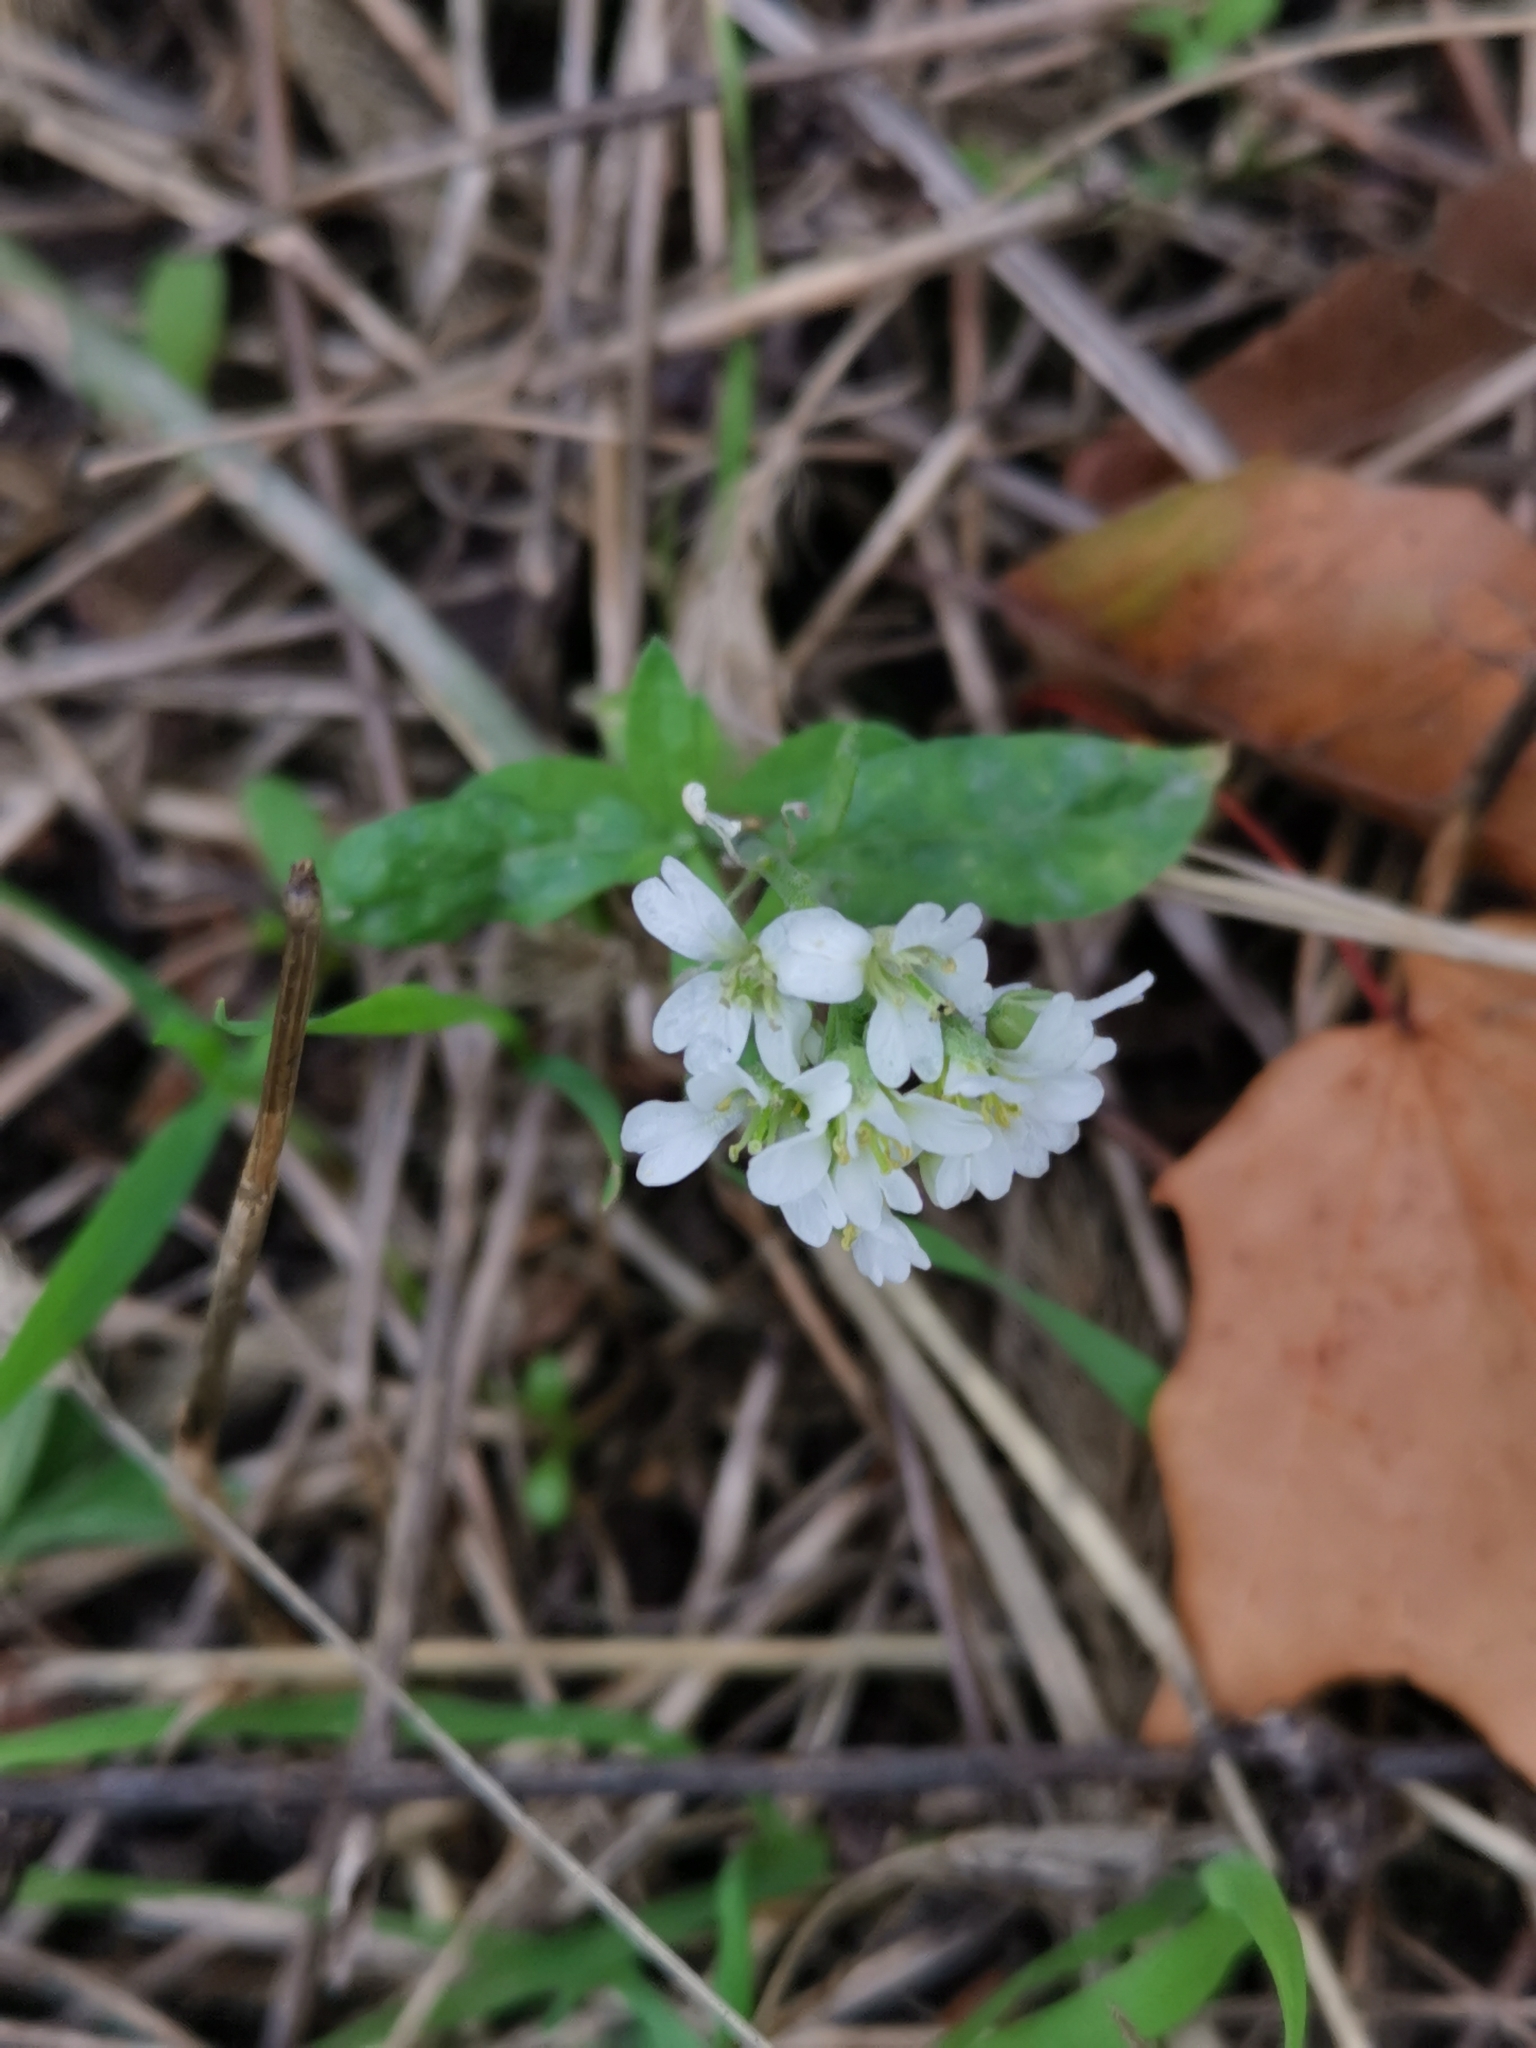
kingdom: Plantae
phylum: Tracheophyta
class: Magnoliopsida
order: Brassicales
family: Brassicaceae
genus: Berteroa
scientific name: Berteroa incana
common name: Hoary alison
